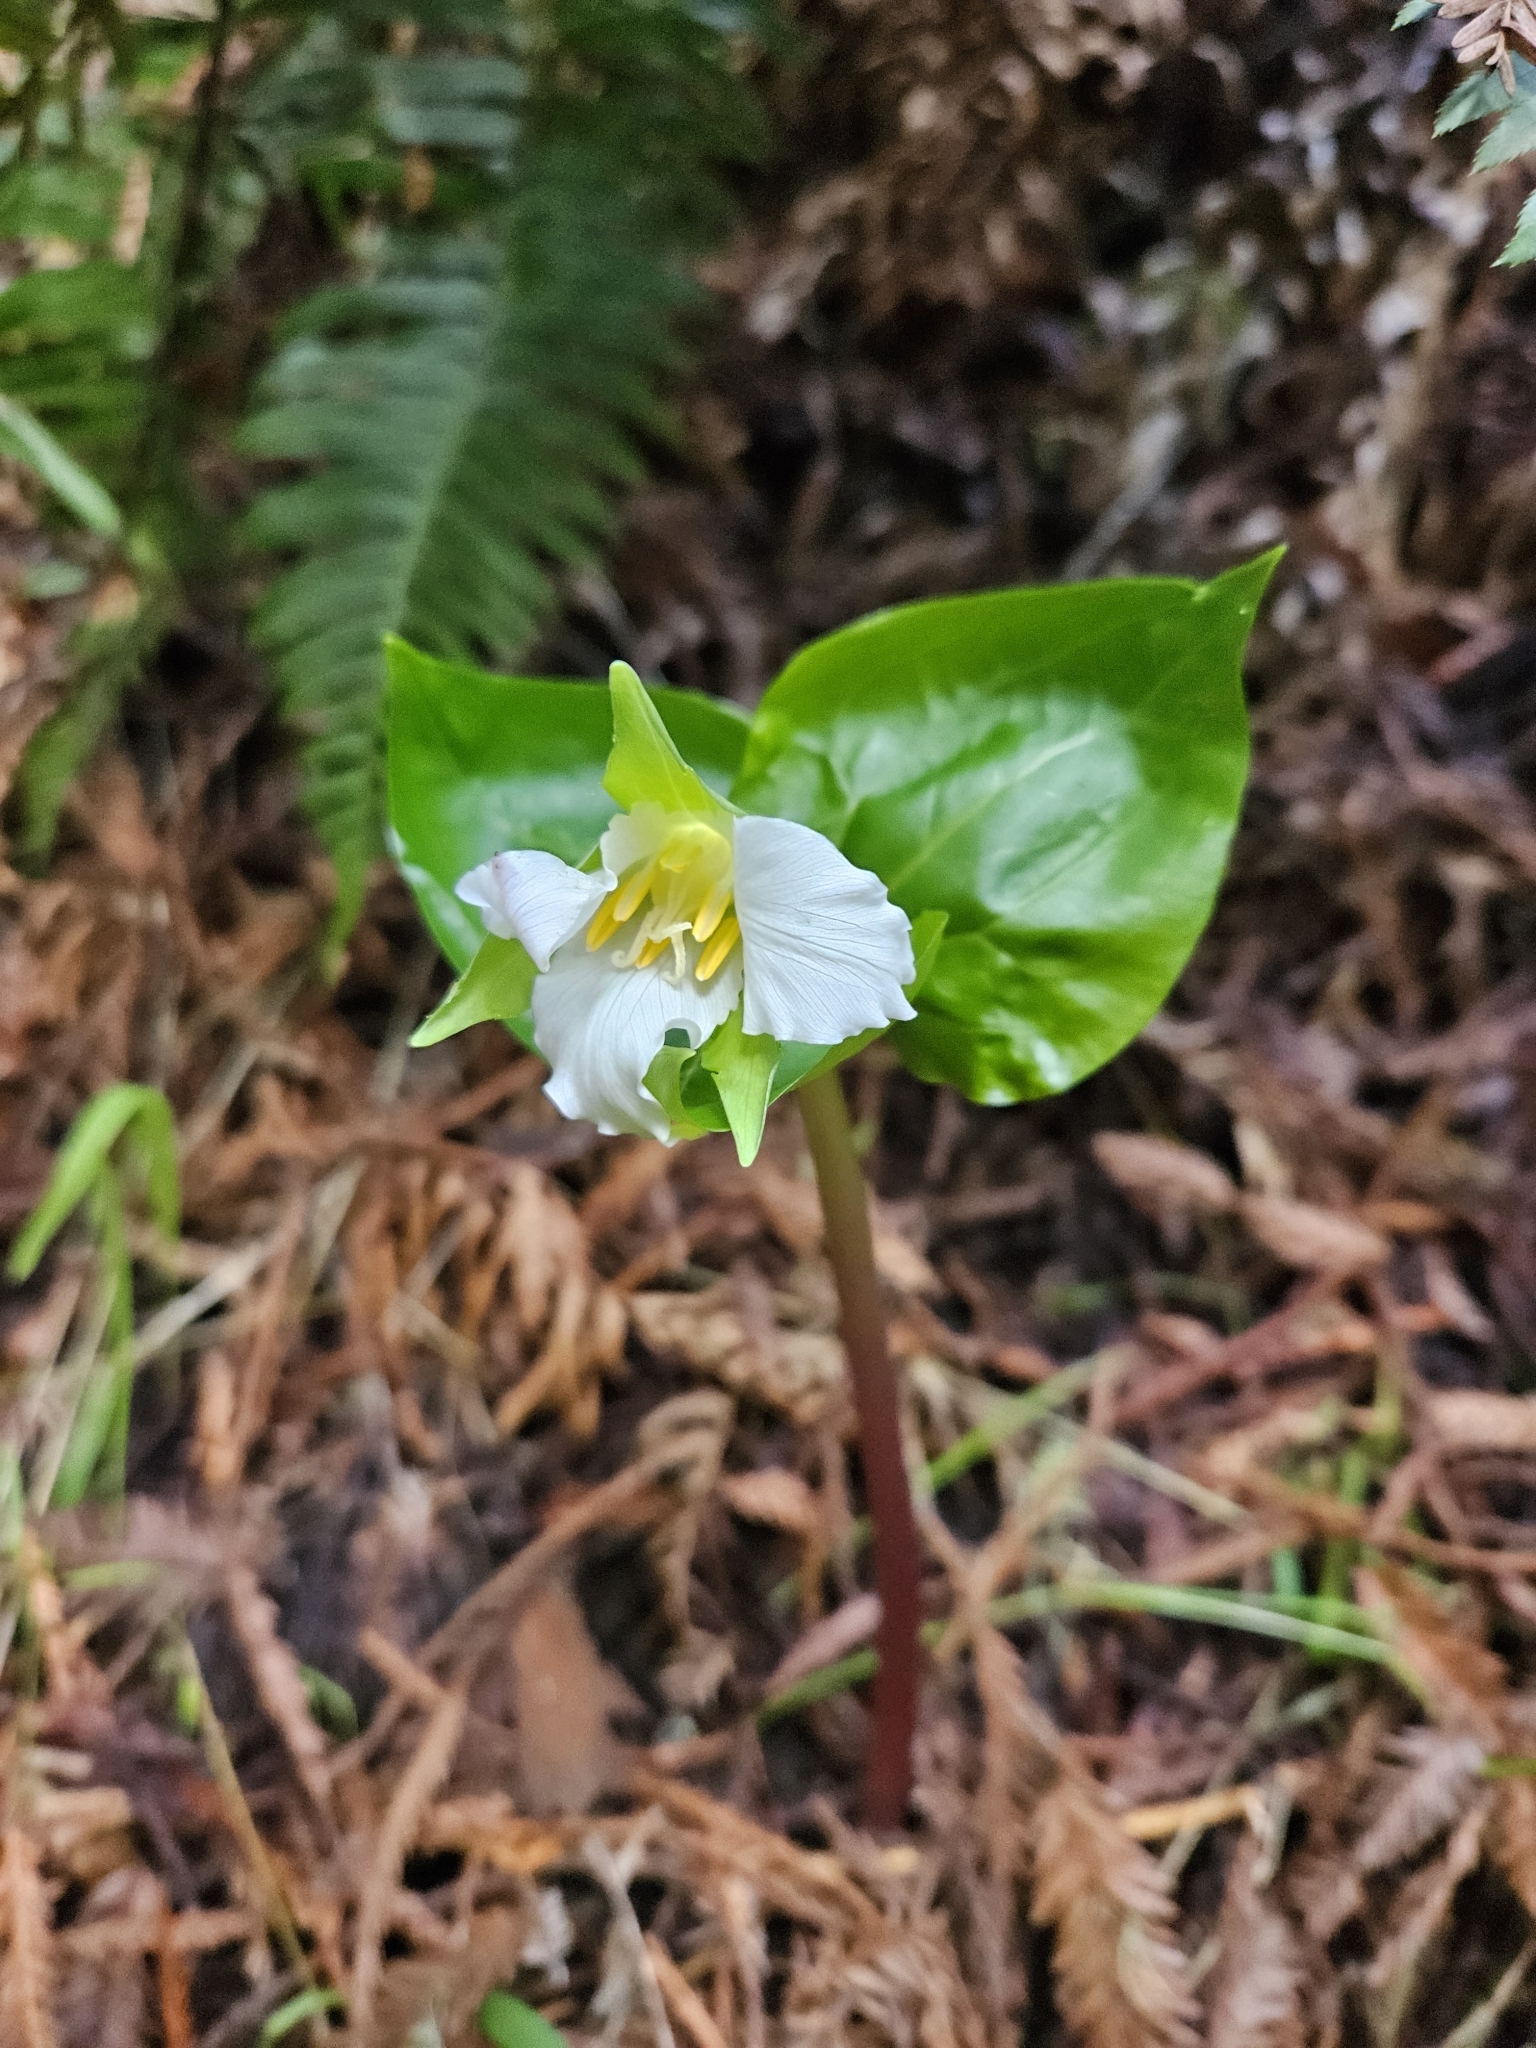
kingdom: Plantae
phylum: Tracheophyta
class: Liliopsida
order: Liliales
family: Melanthiaceae
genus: Trillium
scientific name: Trillium ovatum
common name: Pacific trillium
